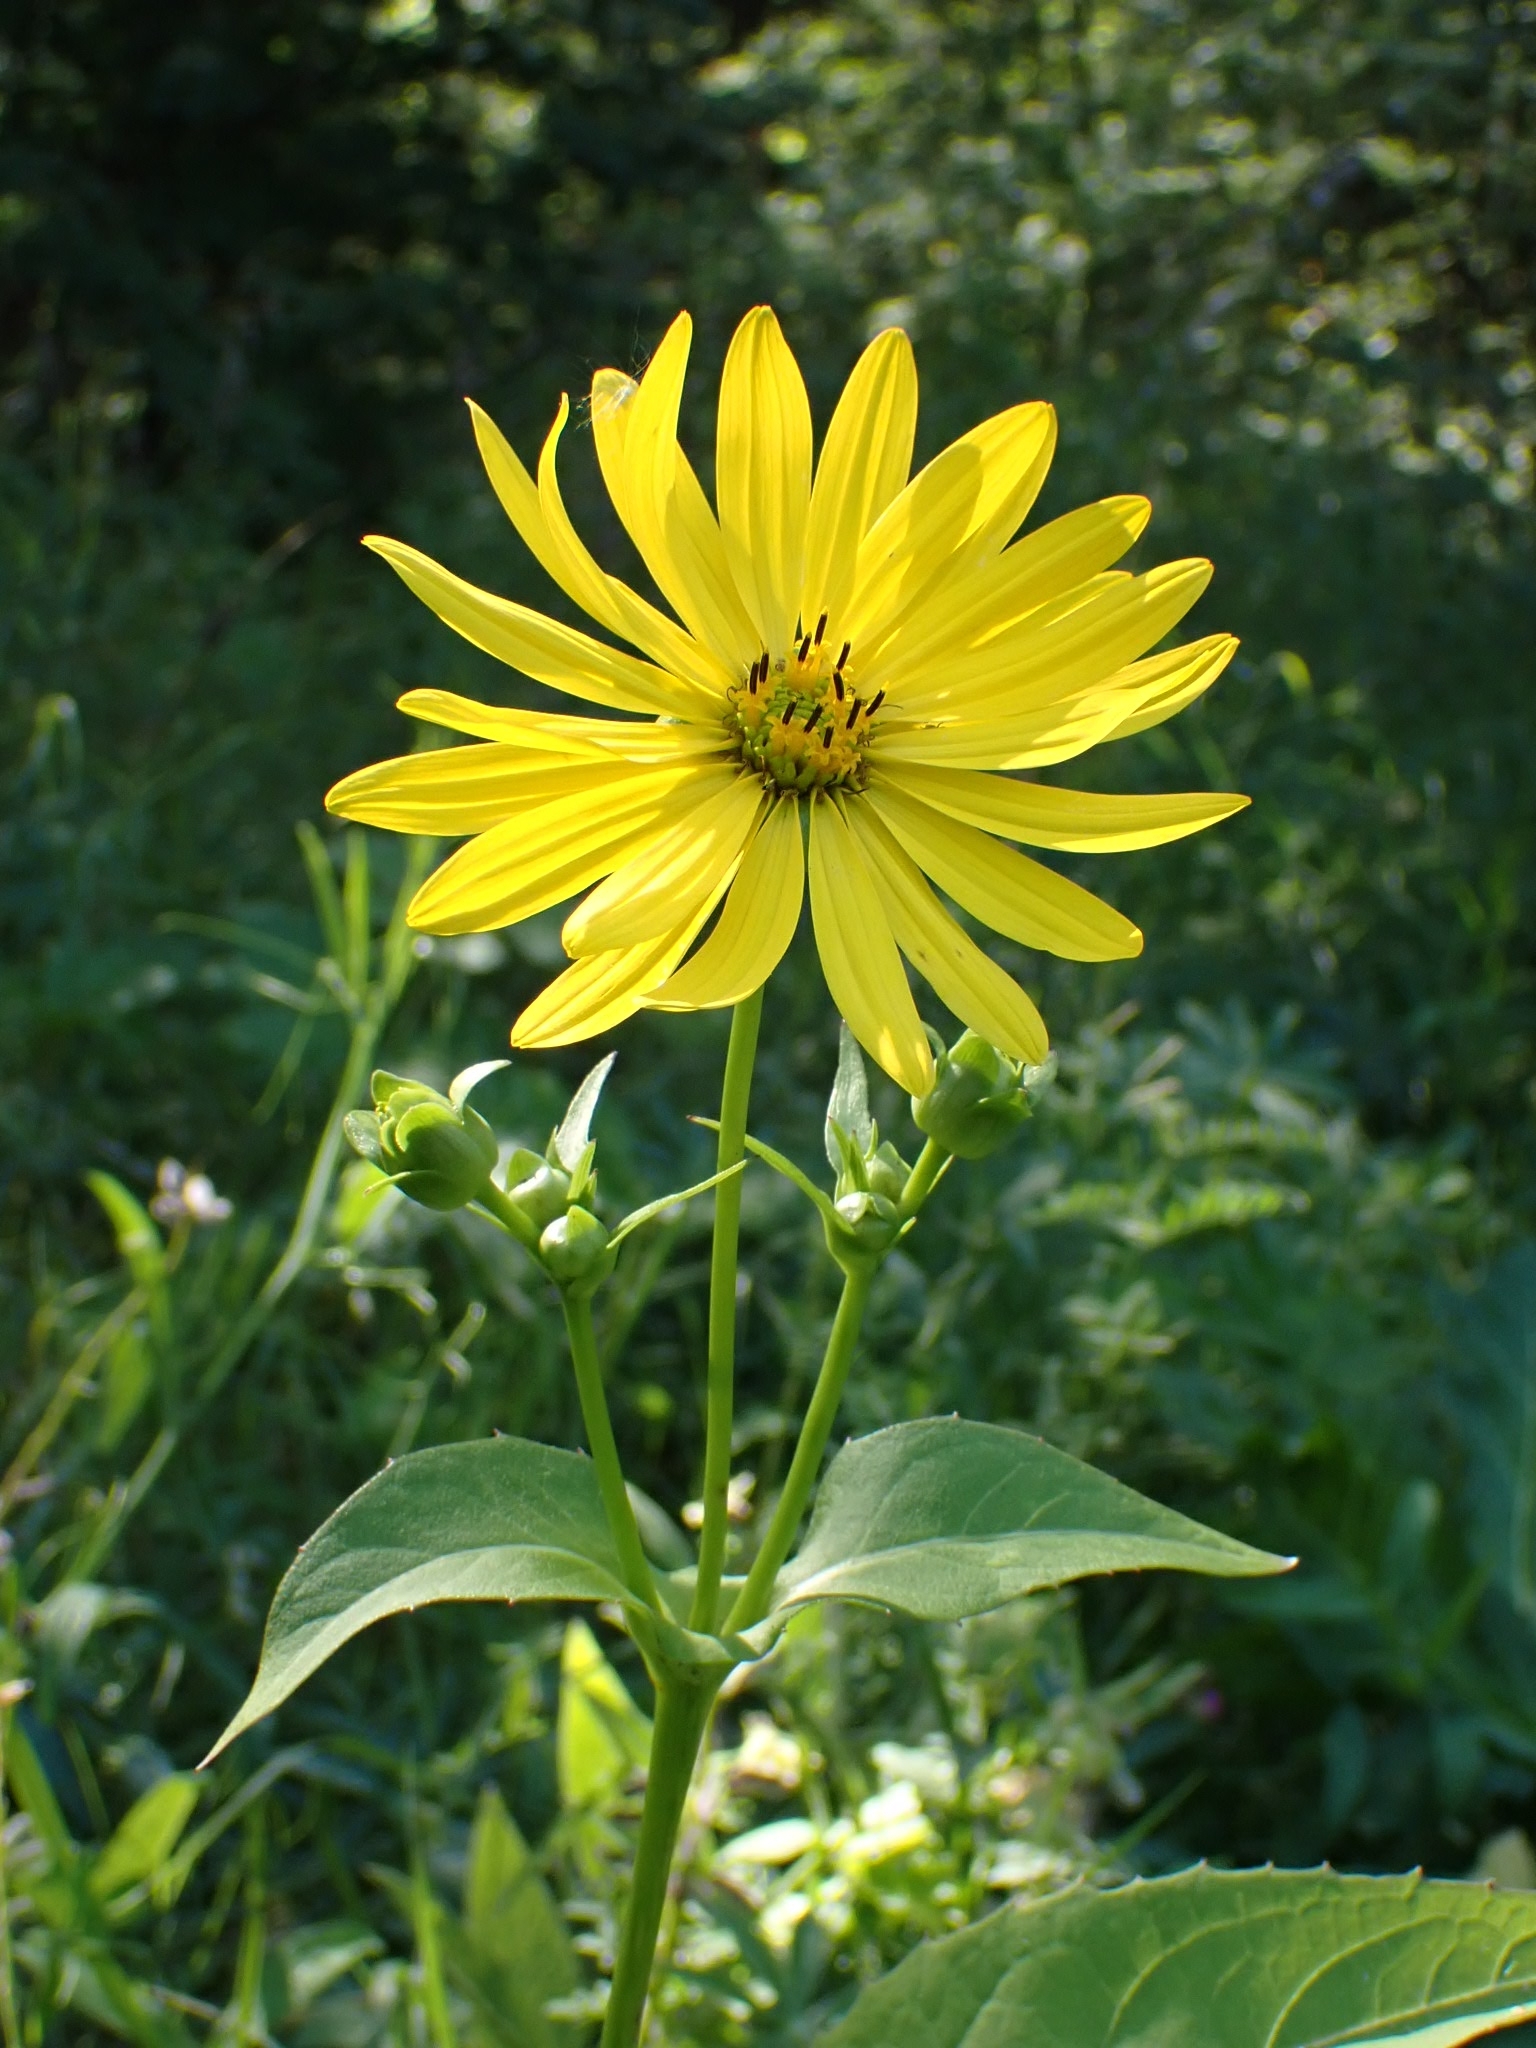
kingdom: Plantae
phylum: Tracheophyta
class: Magnoliopsida
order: Asterales
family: Asteraceae
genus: Helianthus
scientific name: Helianthus tuberosus
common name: Jerusalem artichoke
